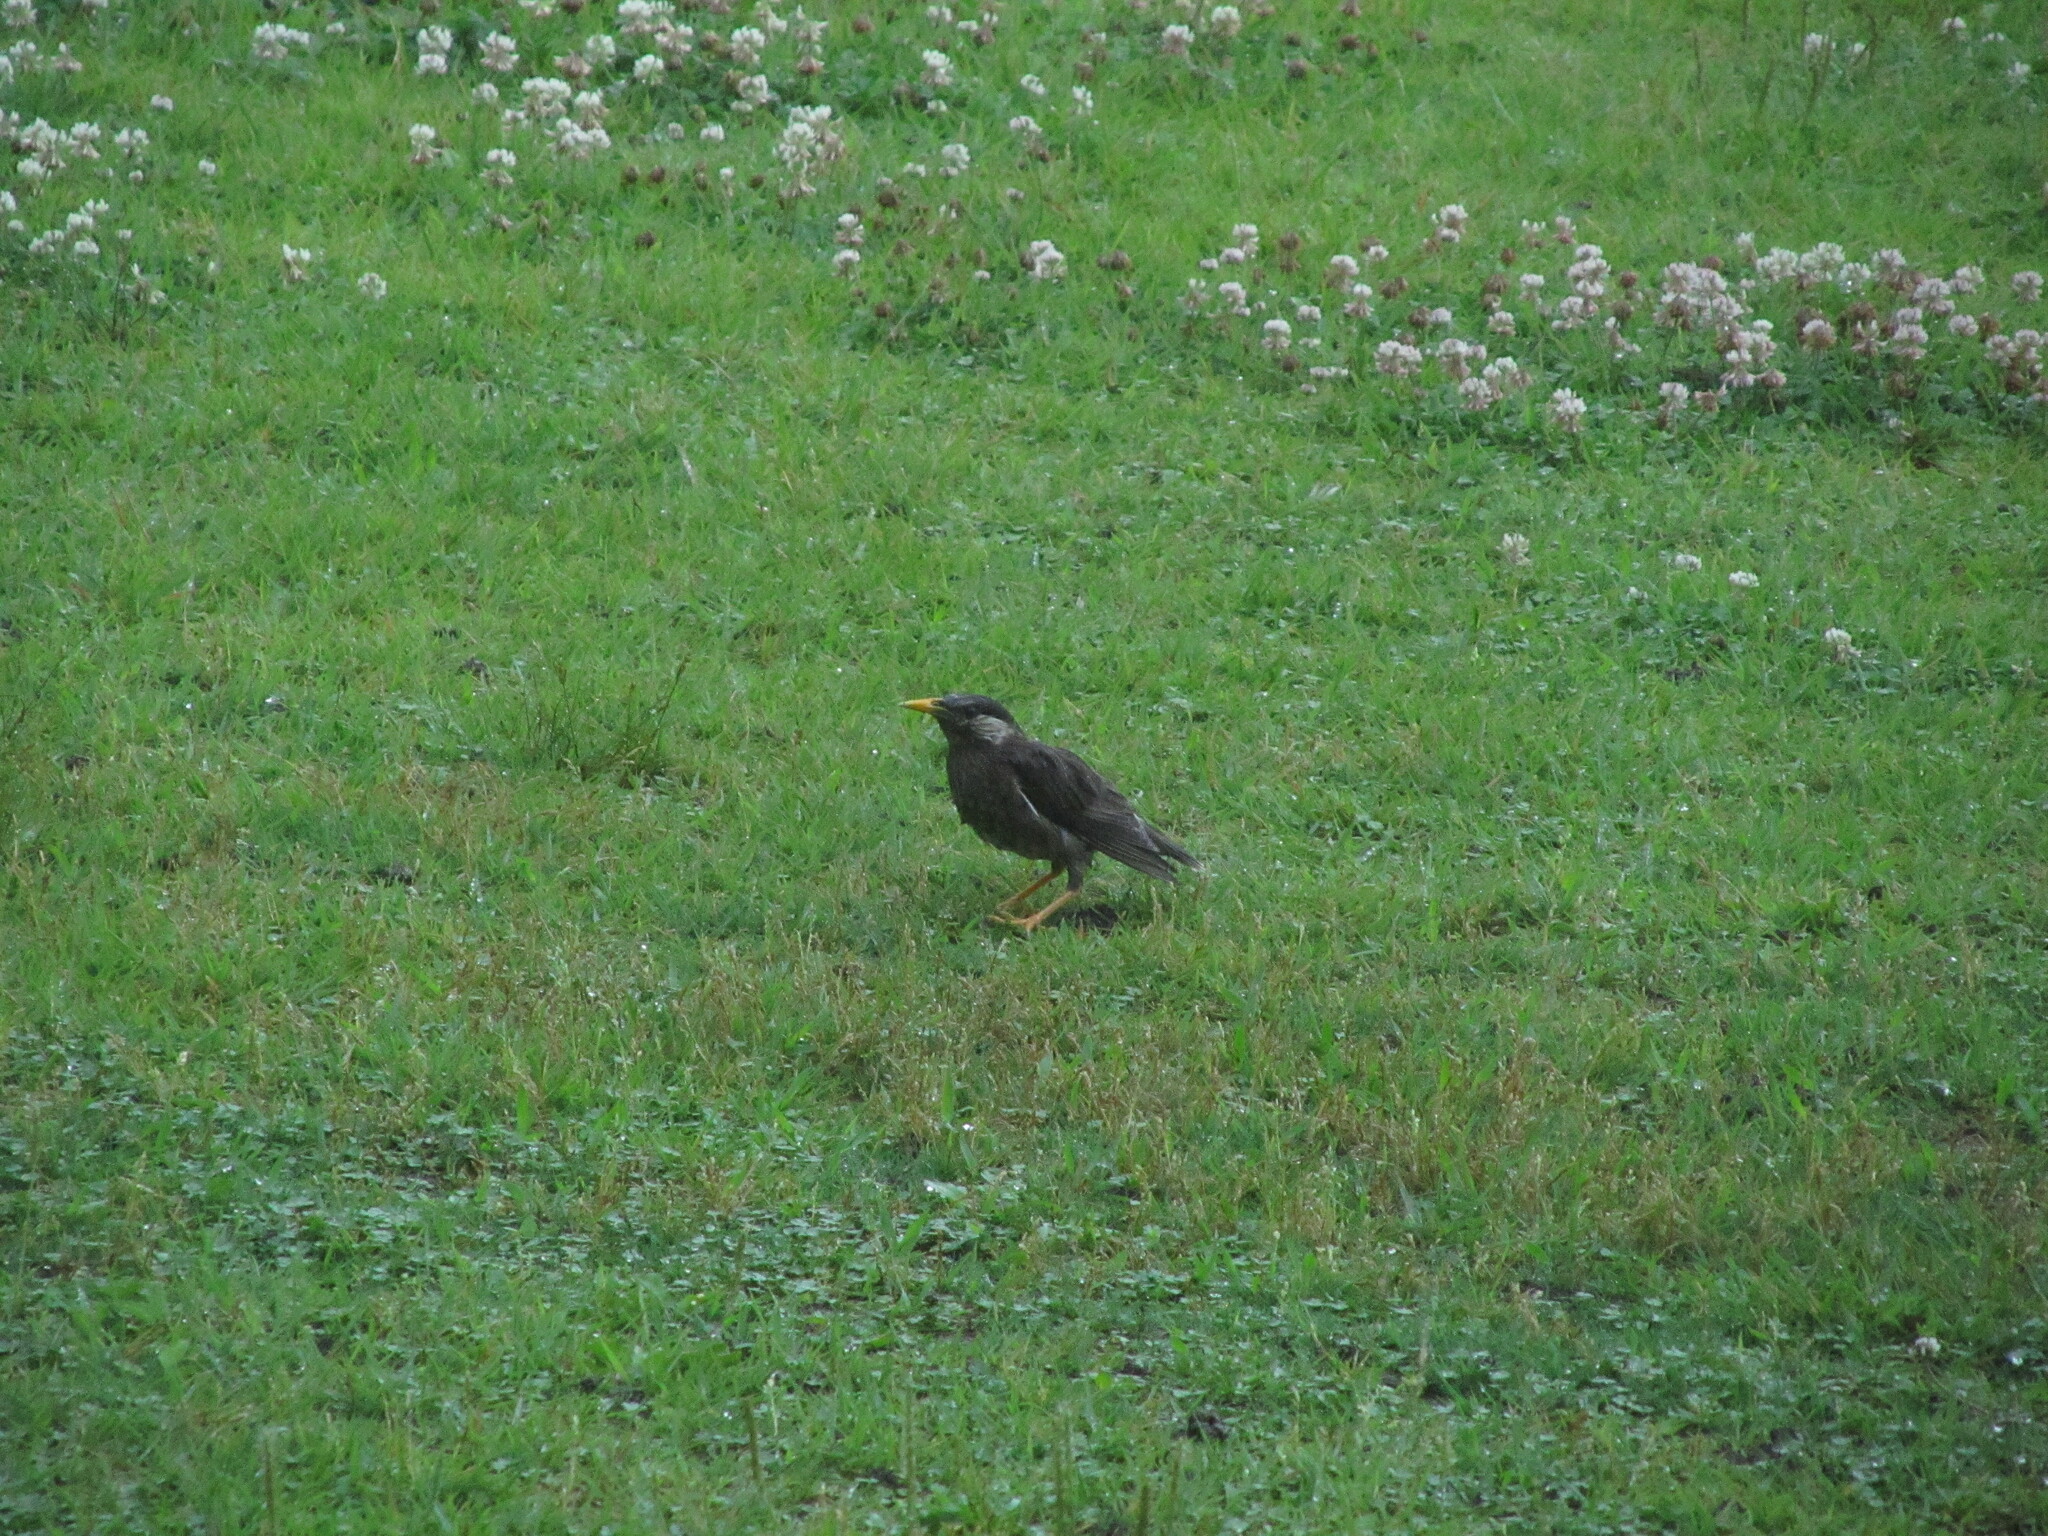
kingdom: Animalia
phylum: Chordata
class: Aves
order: Passeriformes
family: Sturnidae
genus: Spodiopsar
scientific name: Spodiopsar cineraceus
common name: White-cheeked starling
